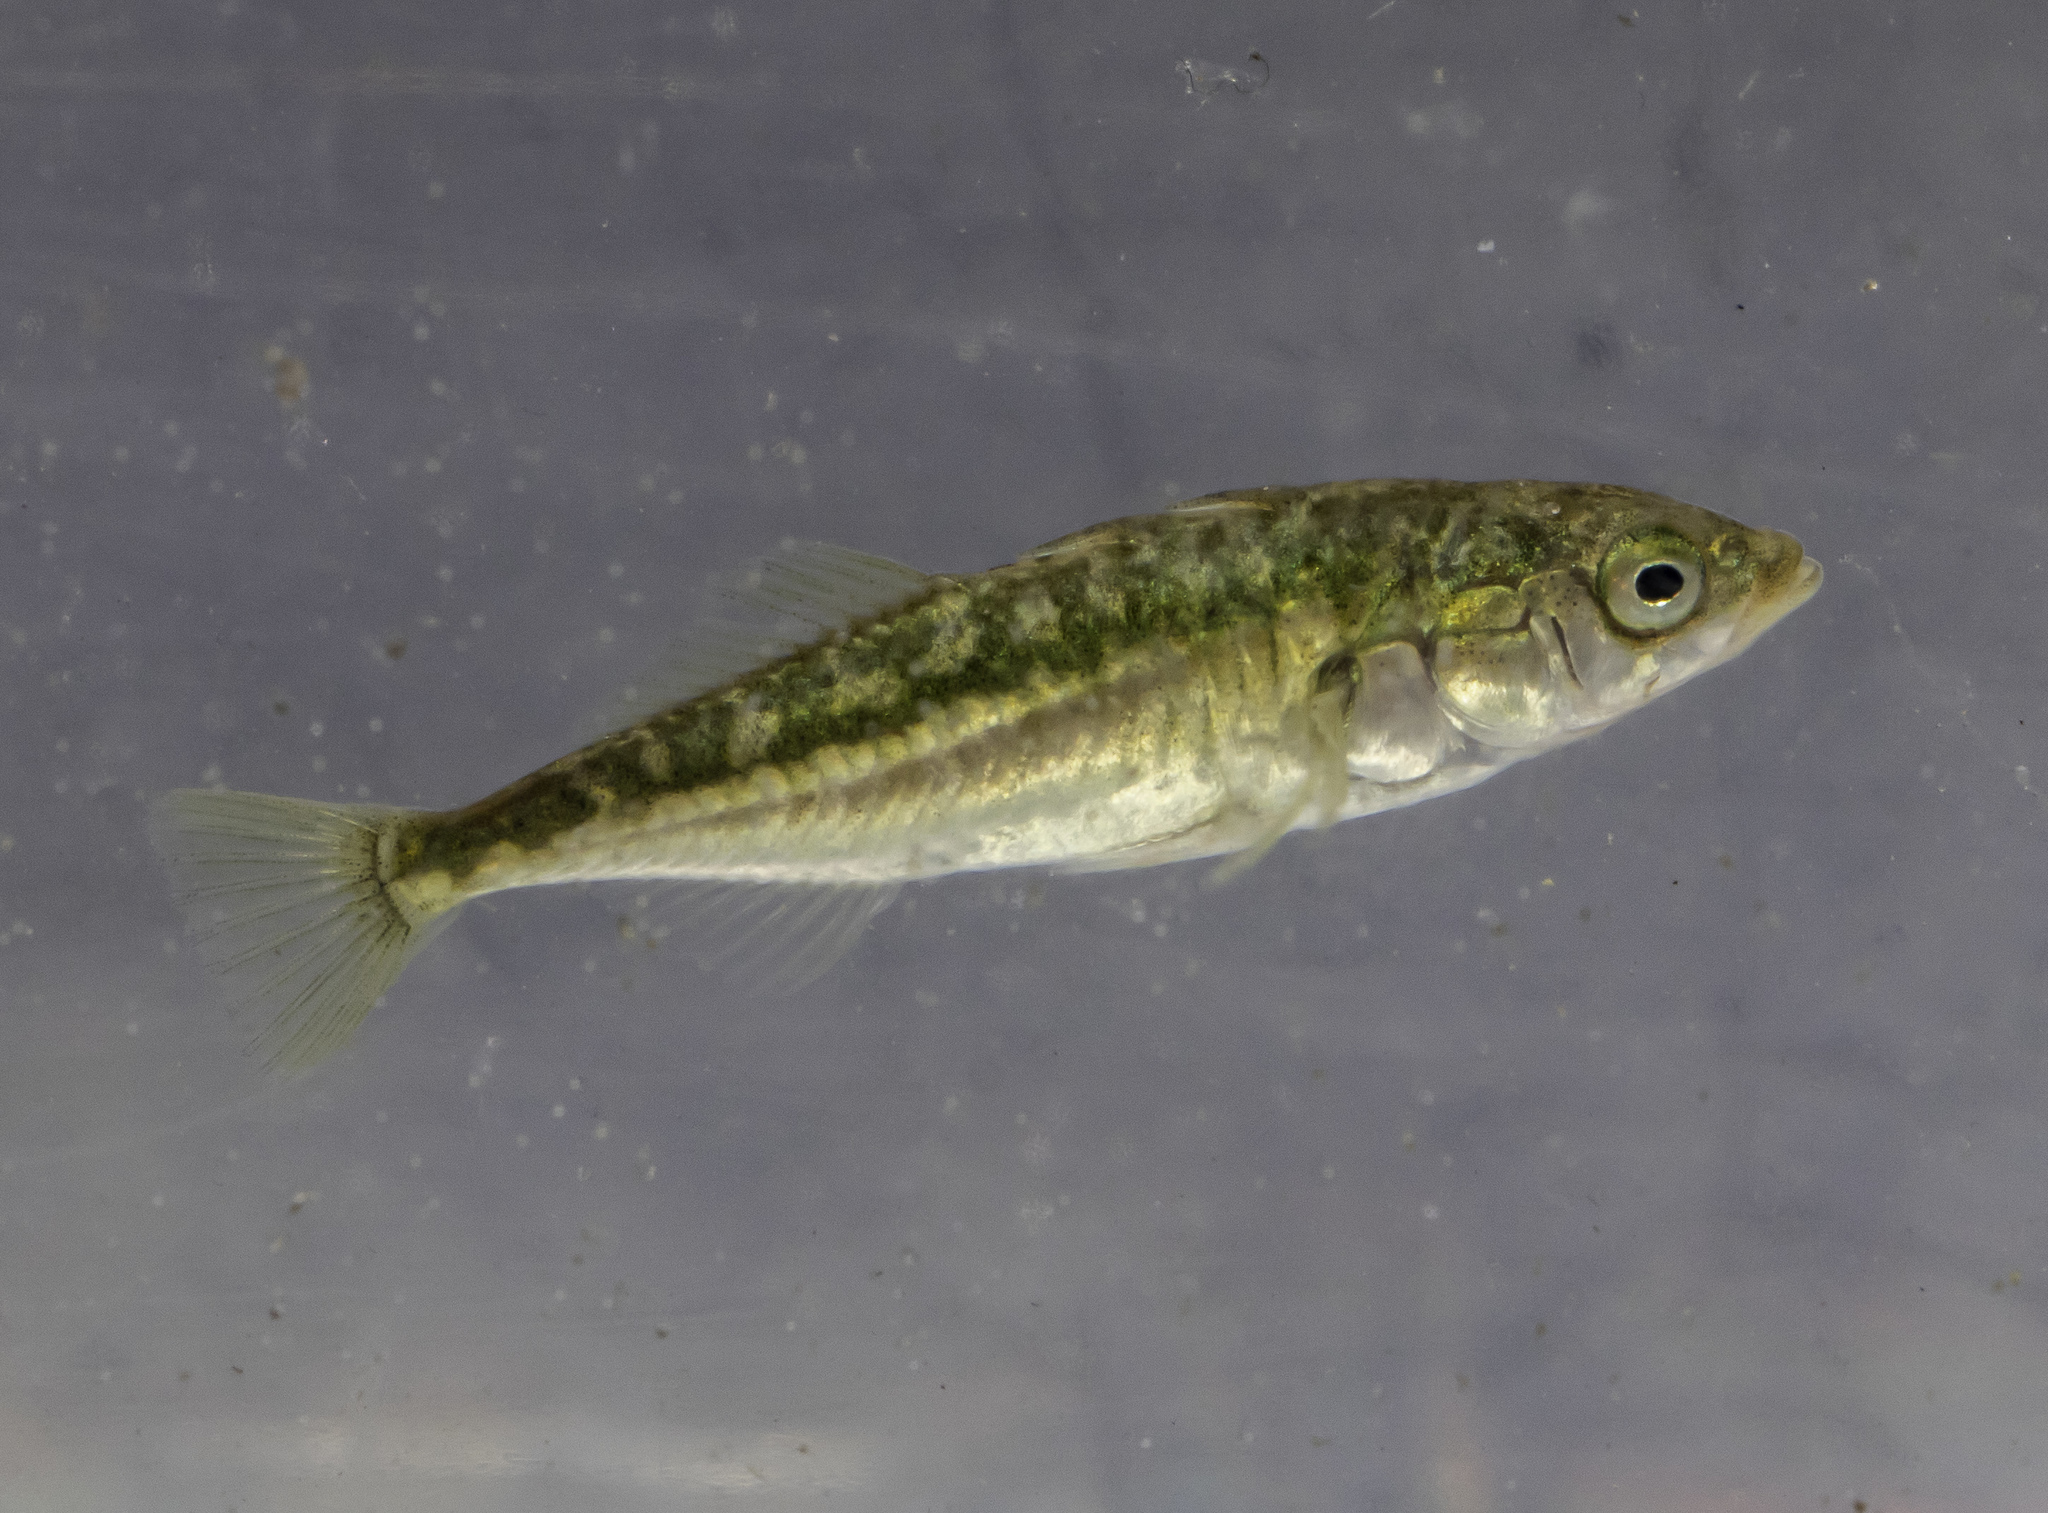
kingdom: Animalia
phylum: Chordata
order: Gasterosteiformes
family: Gasterosteidae
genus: Gasterosteus
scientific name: Gasterosteus aculeatus
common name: Three-spined stickleback
